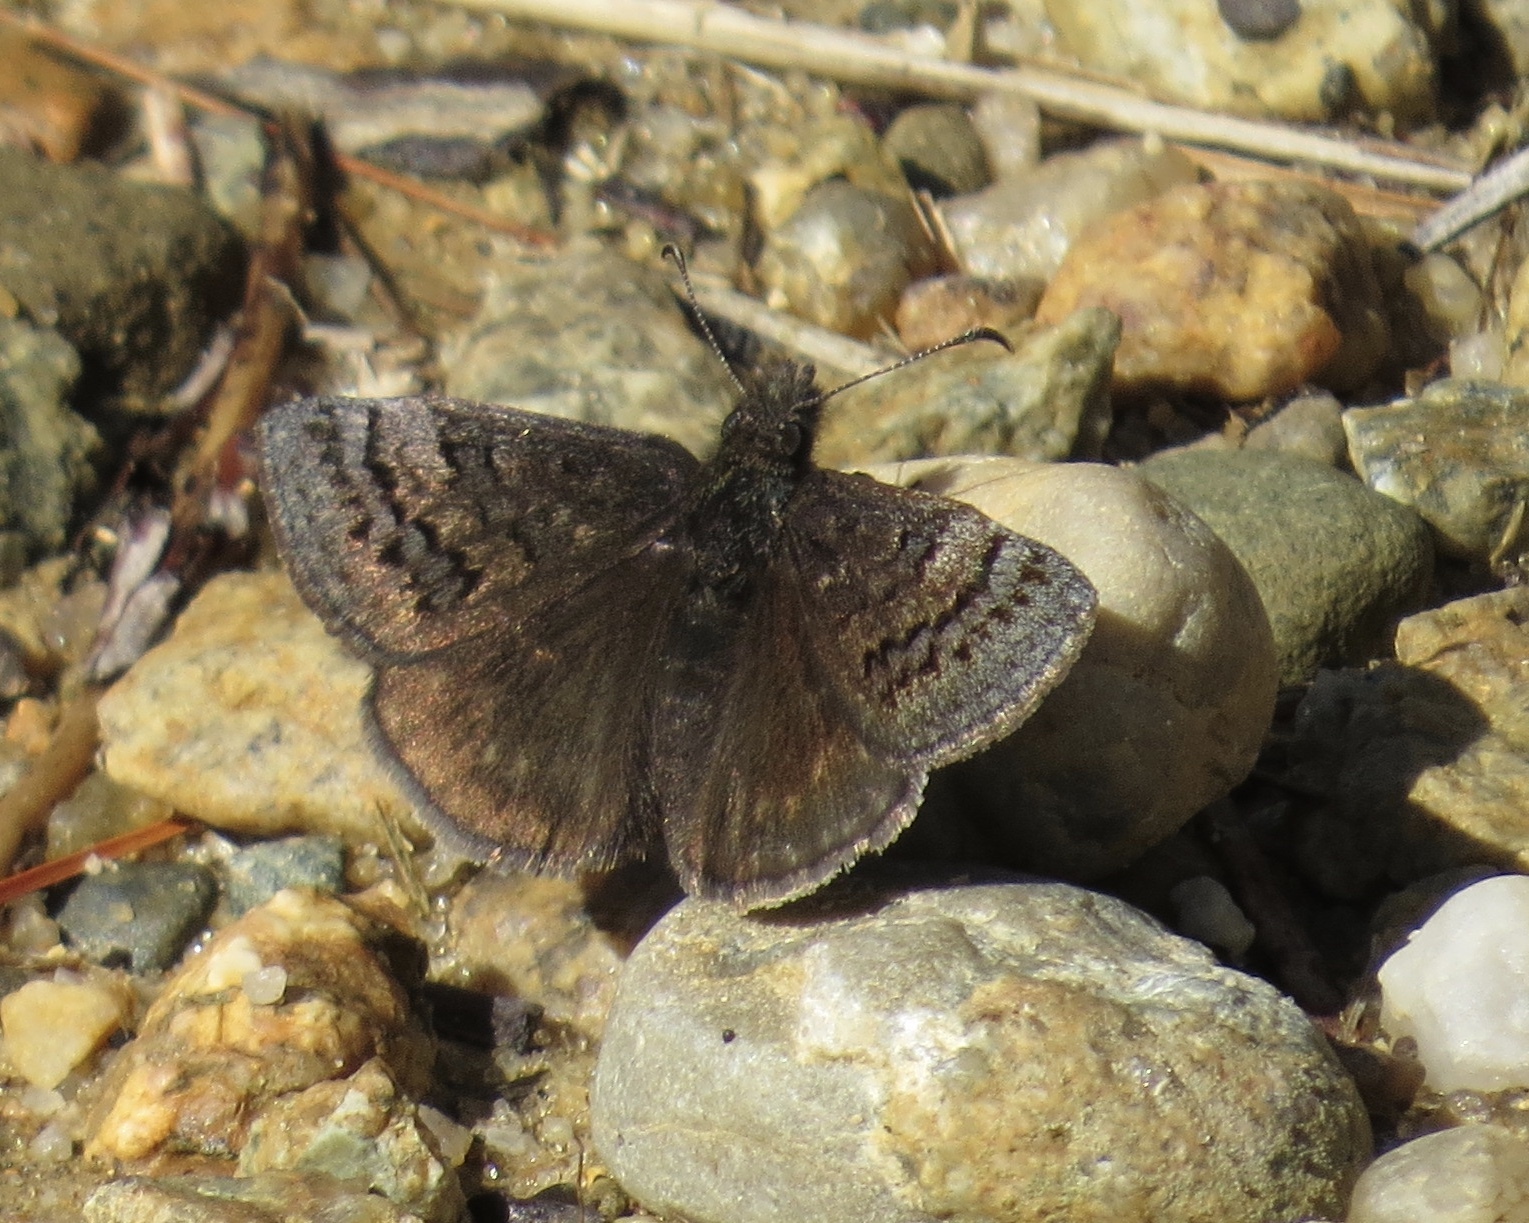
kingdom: Animalia
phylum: Arthropoda
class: Insecta
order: Lepidoptera
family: Hesperiidae
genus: Erynnis
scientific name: Erynnis brizo
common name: Sleepy duskywing
